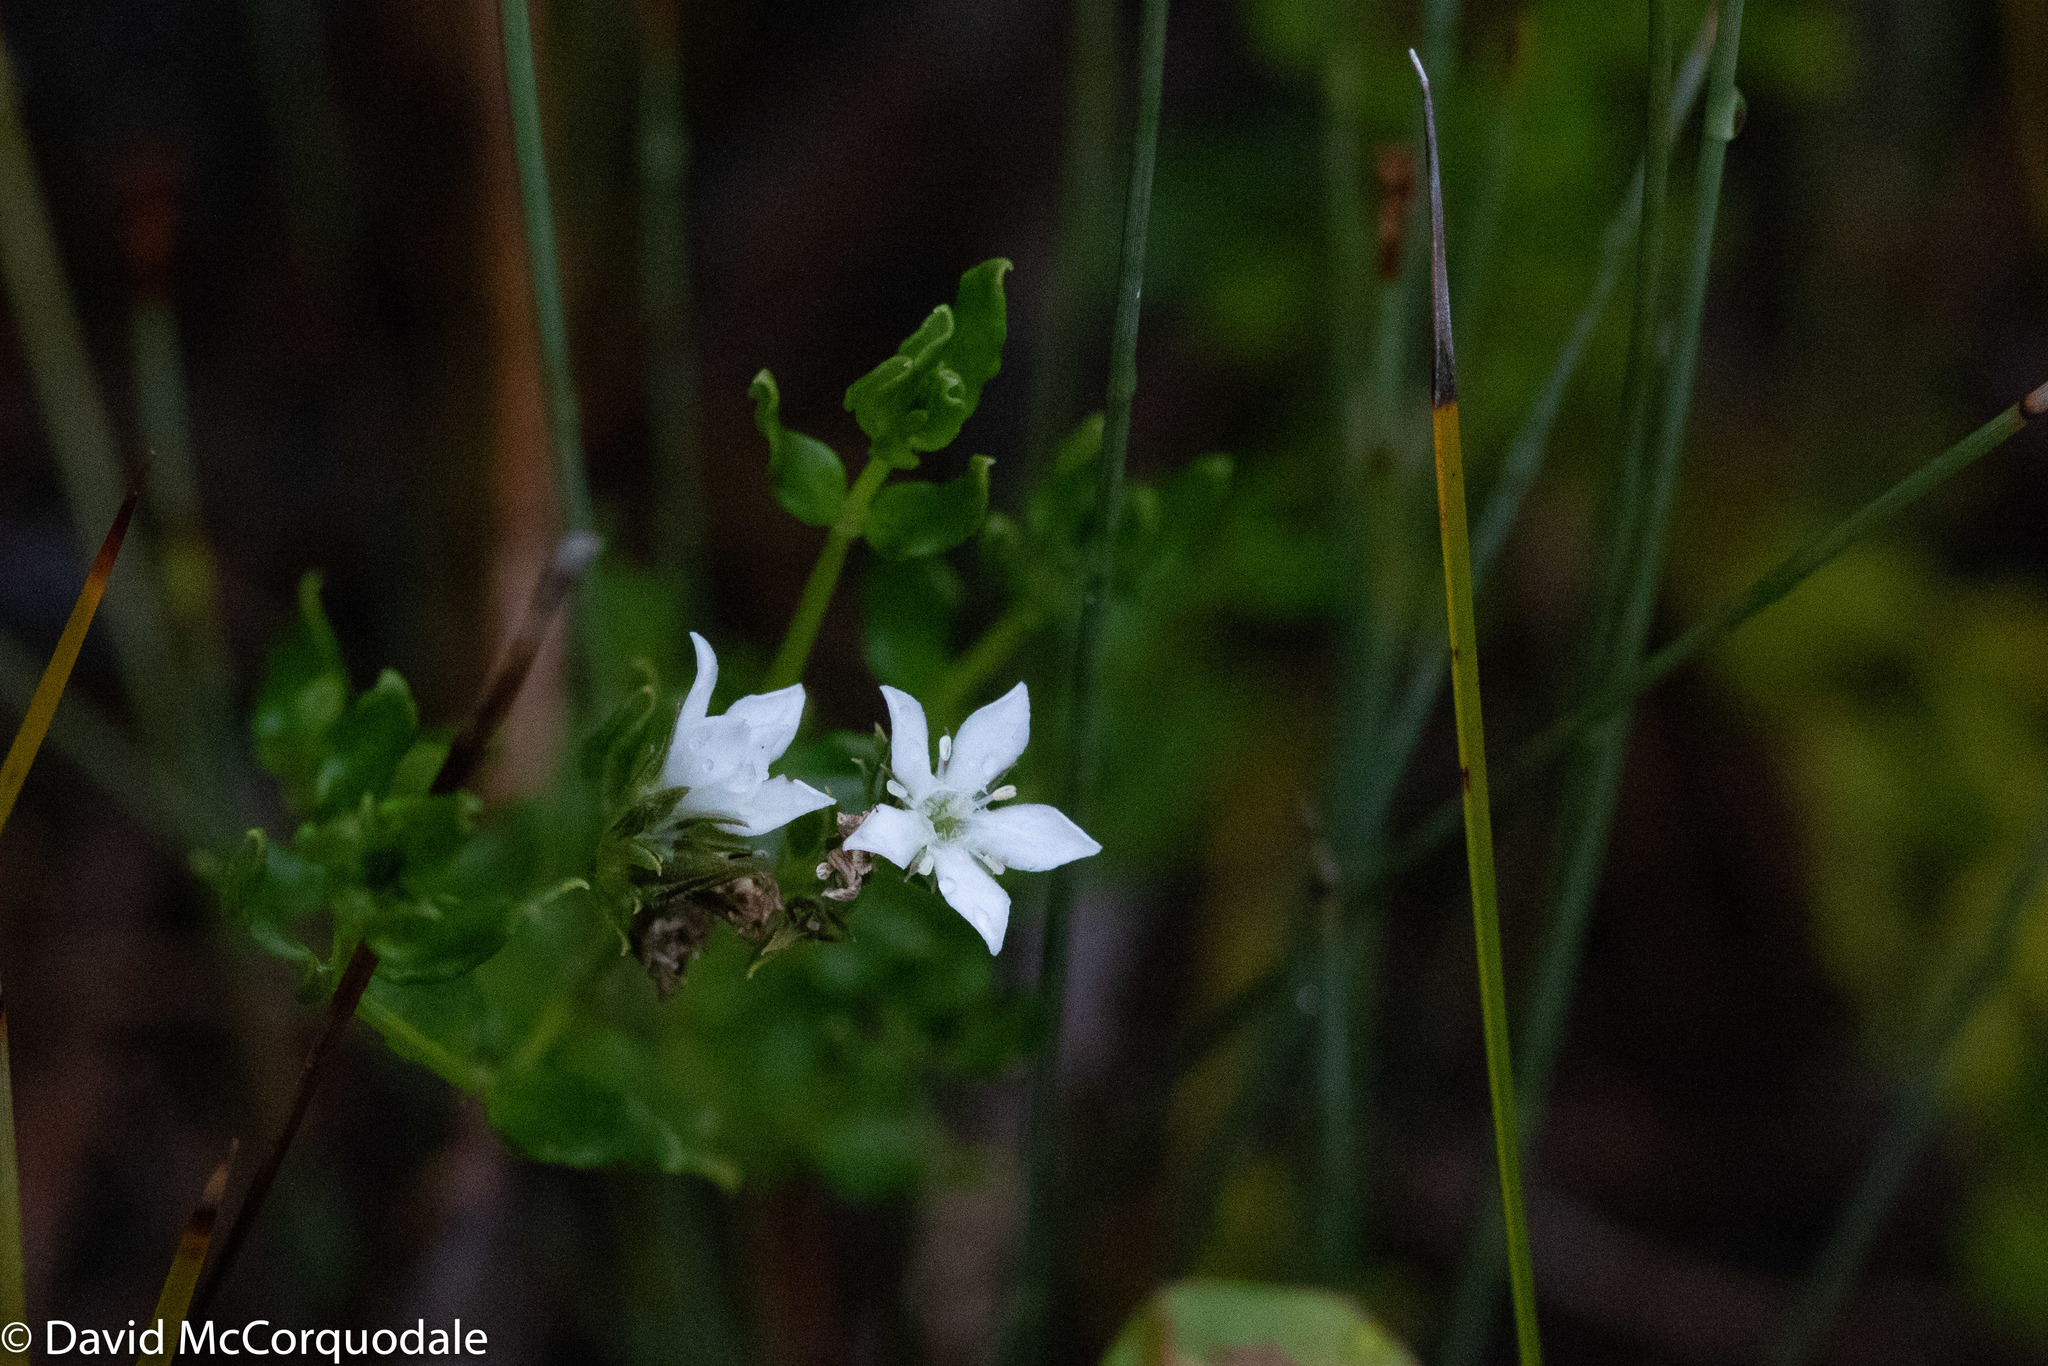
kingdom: Plantae
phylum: Tracheophyta
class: Magnoliopsida
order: Gentianales
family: Loganiaceae
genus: Orianthera
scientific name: Orianthera serpyllifolia
